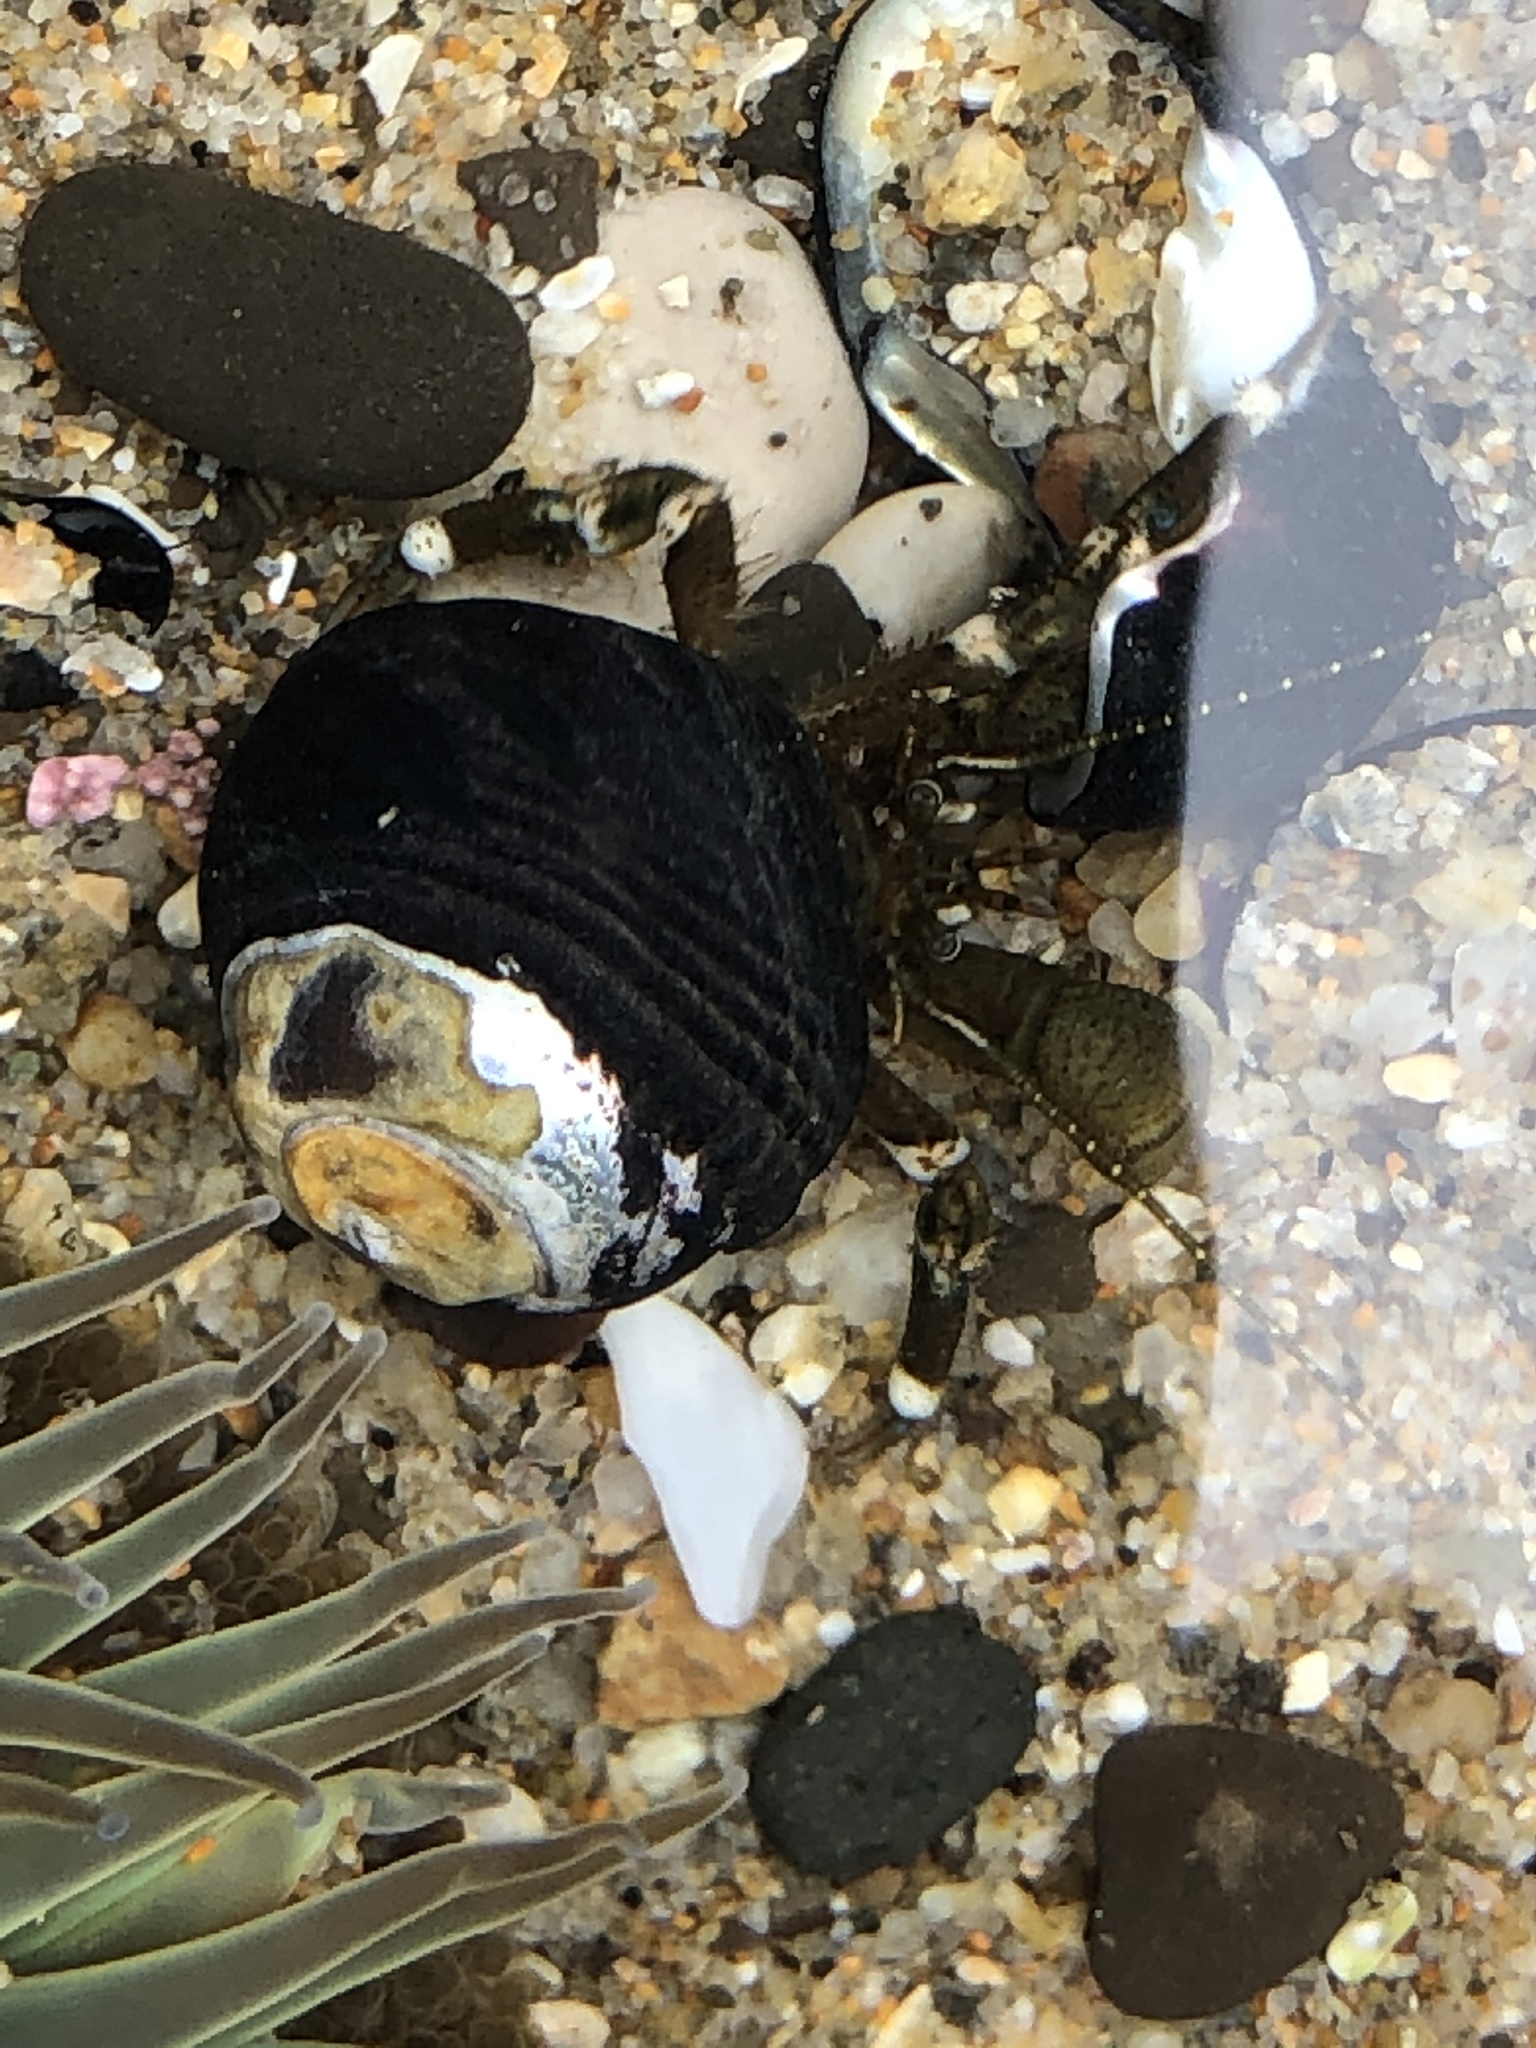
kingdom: Animalia
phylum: Arthropoda
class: Malacostraca
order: Decapoda
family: Paguridae
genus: Pagurus
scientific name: Pagurus hirsutiusculus
